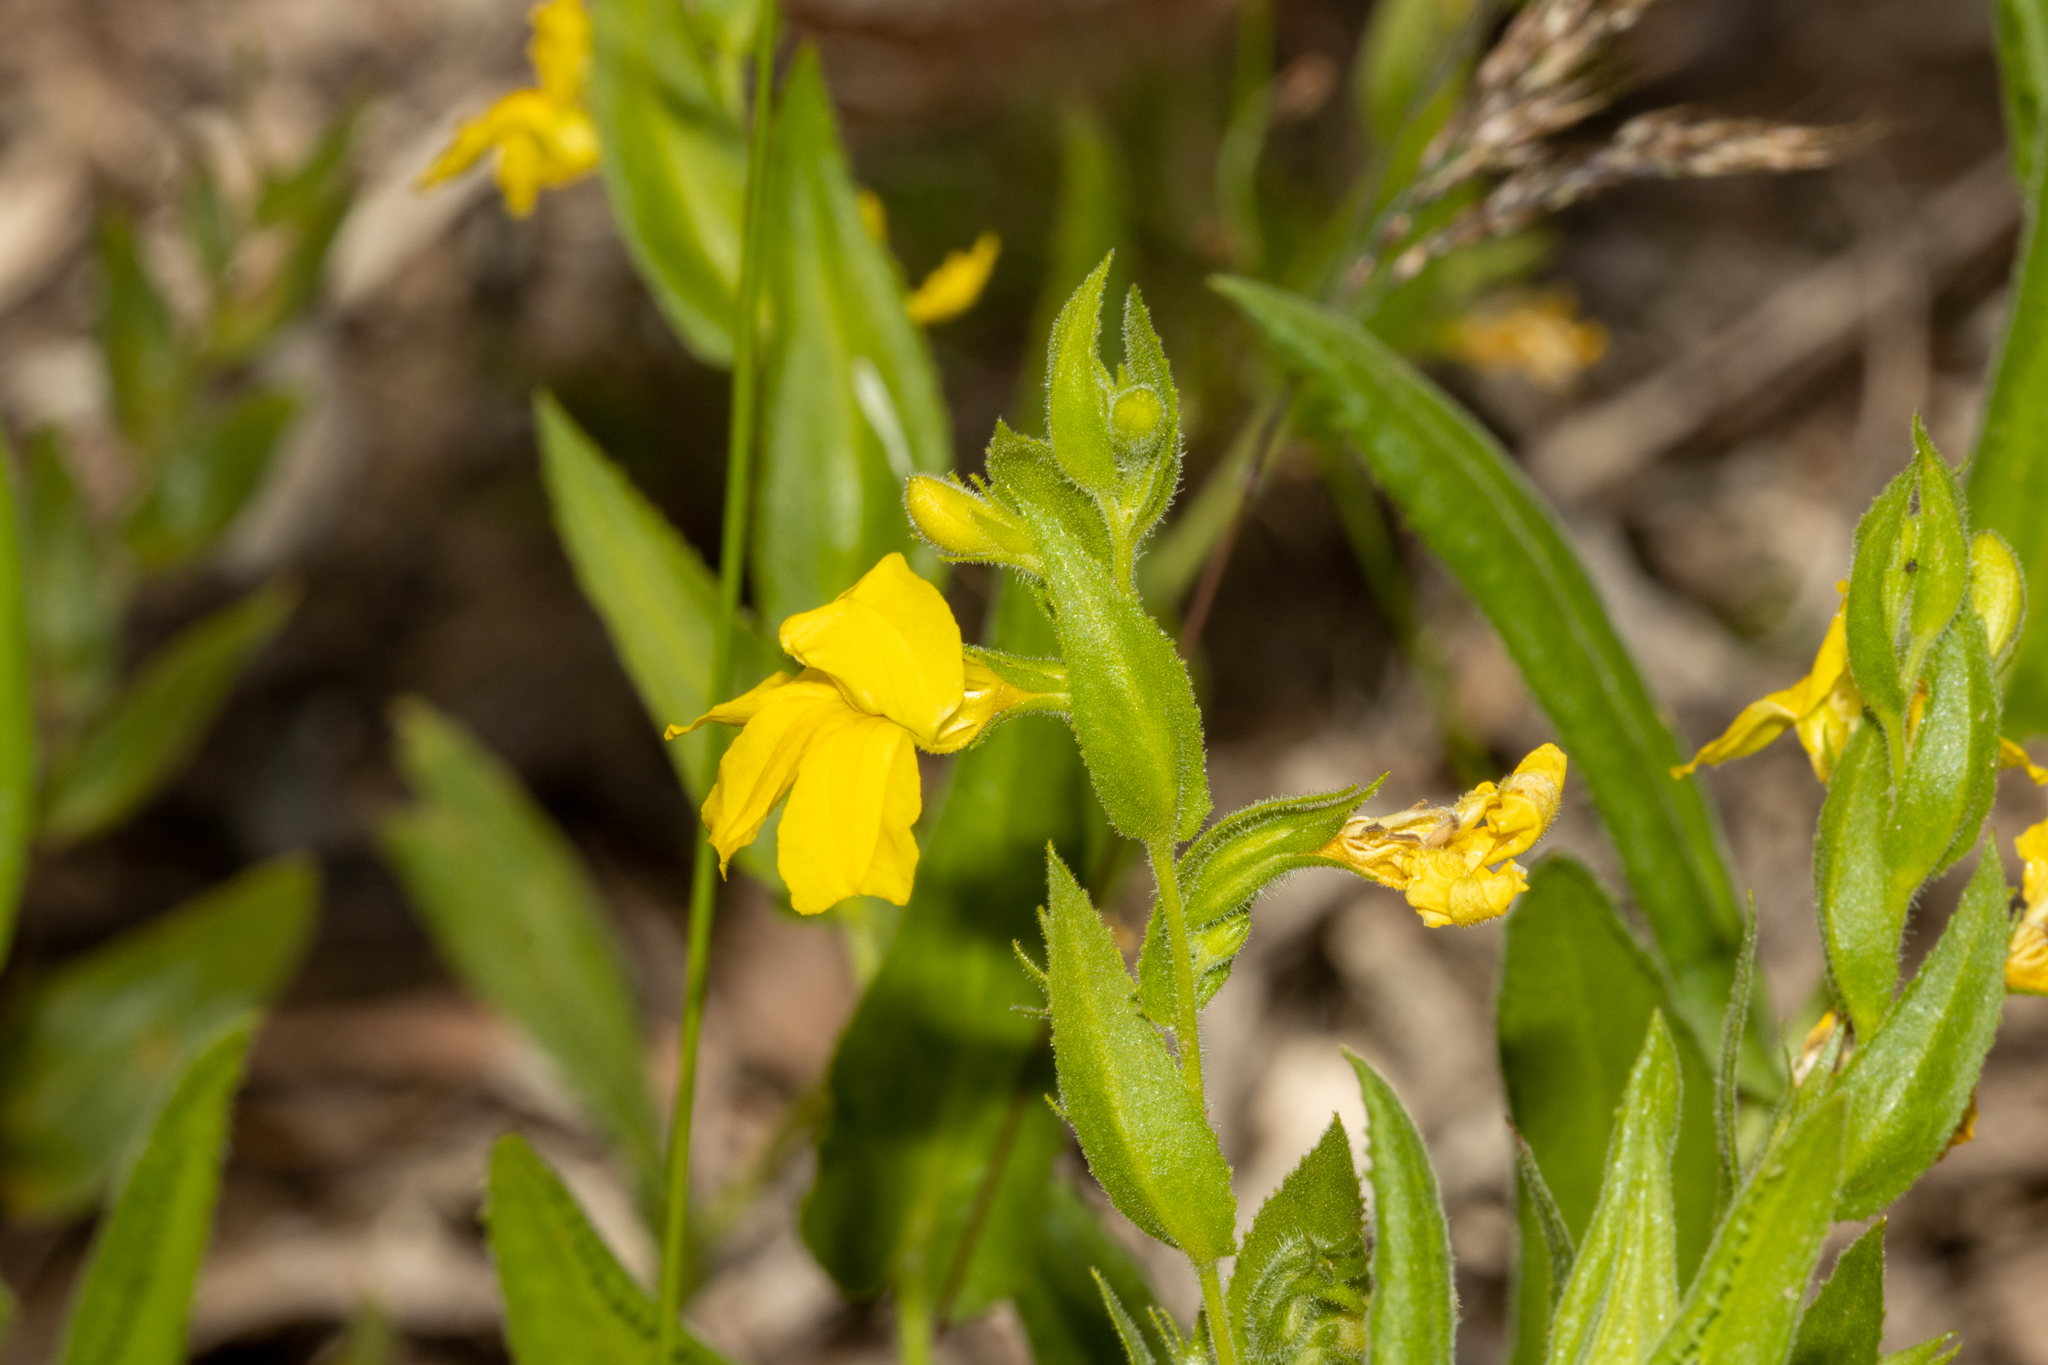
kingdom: Plantae
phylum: Tracheophyta
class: Magnoliopsida
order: Asterales
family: Goodeniaceae
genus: Goodenia
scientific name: Goodenia amplexans
